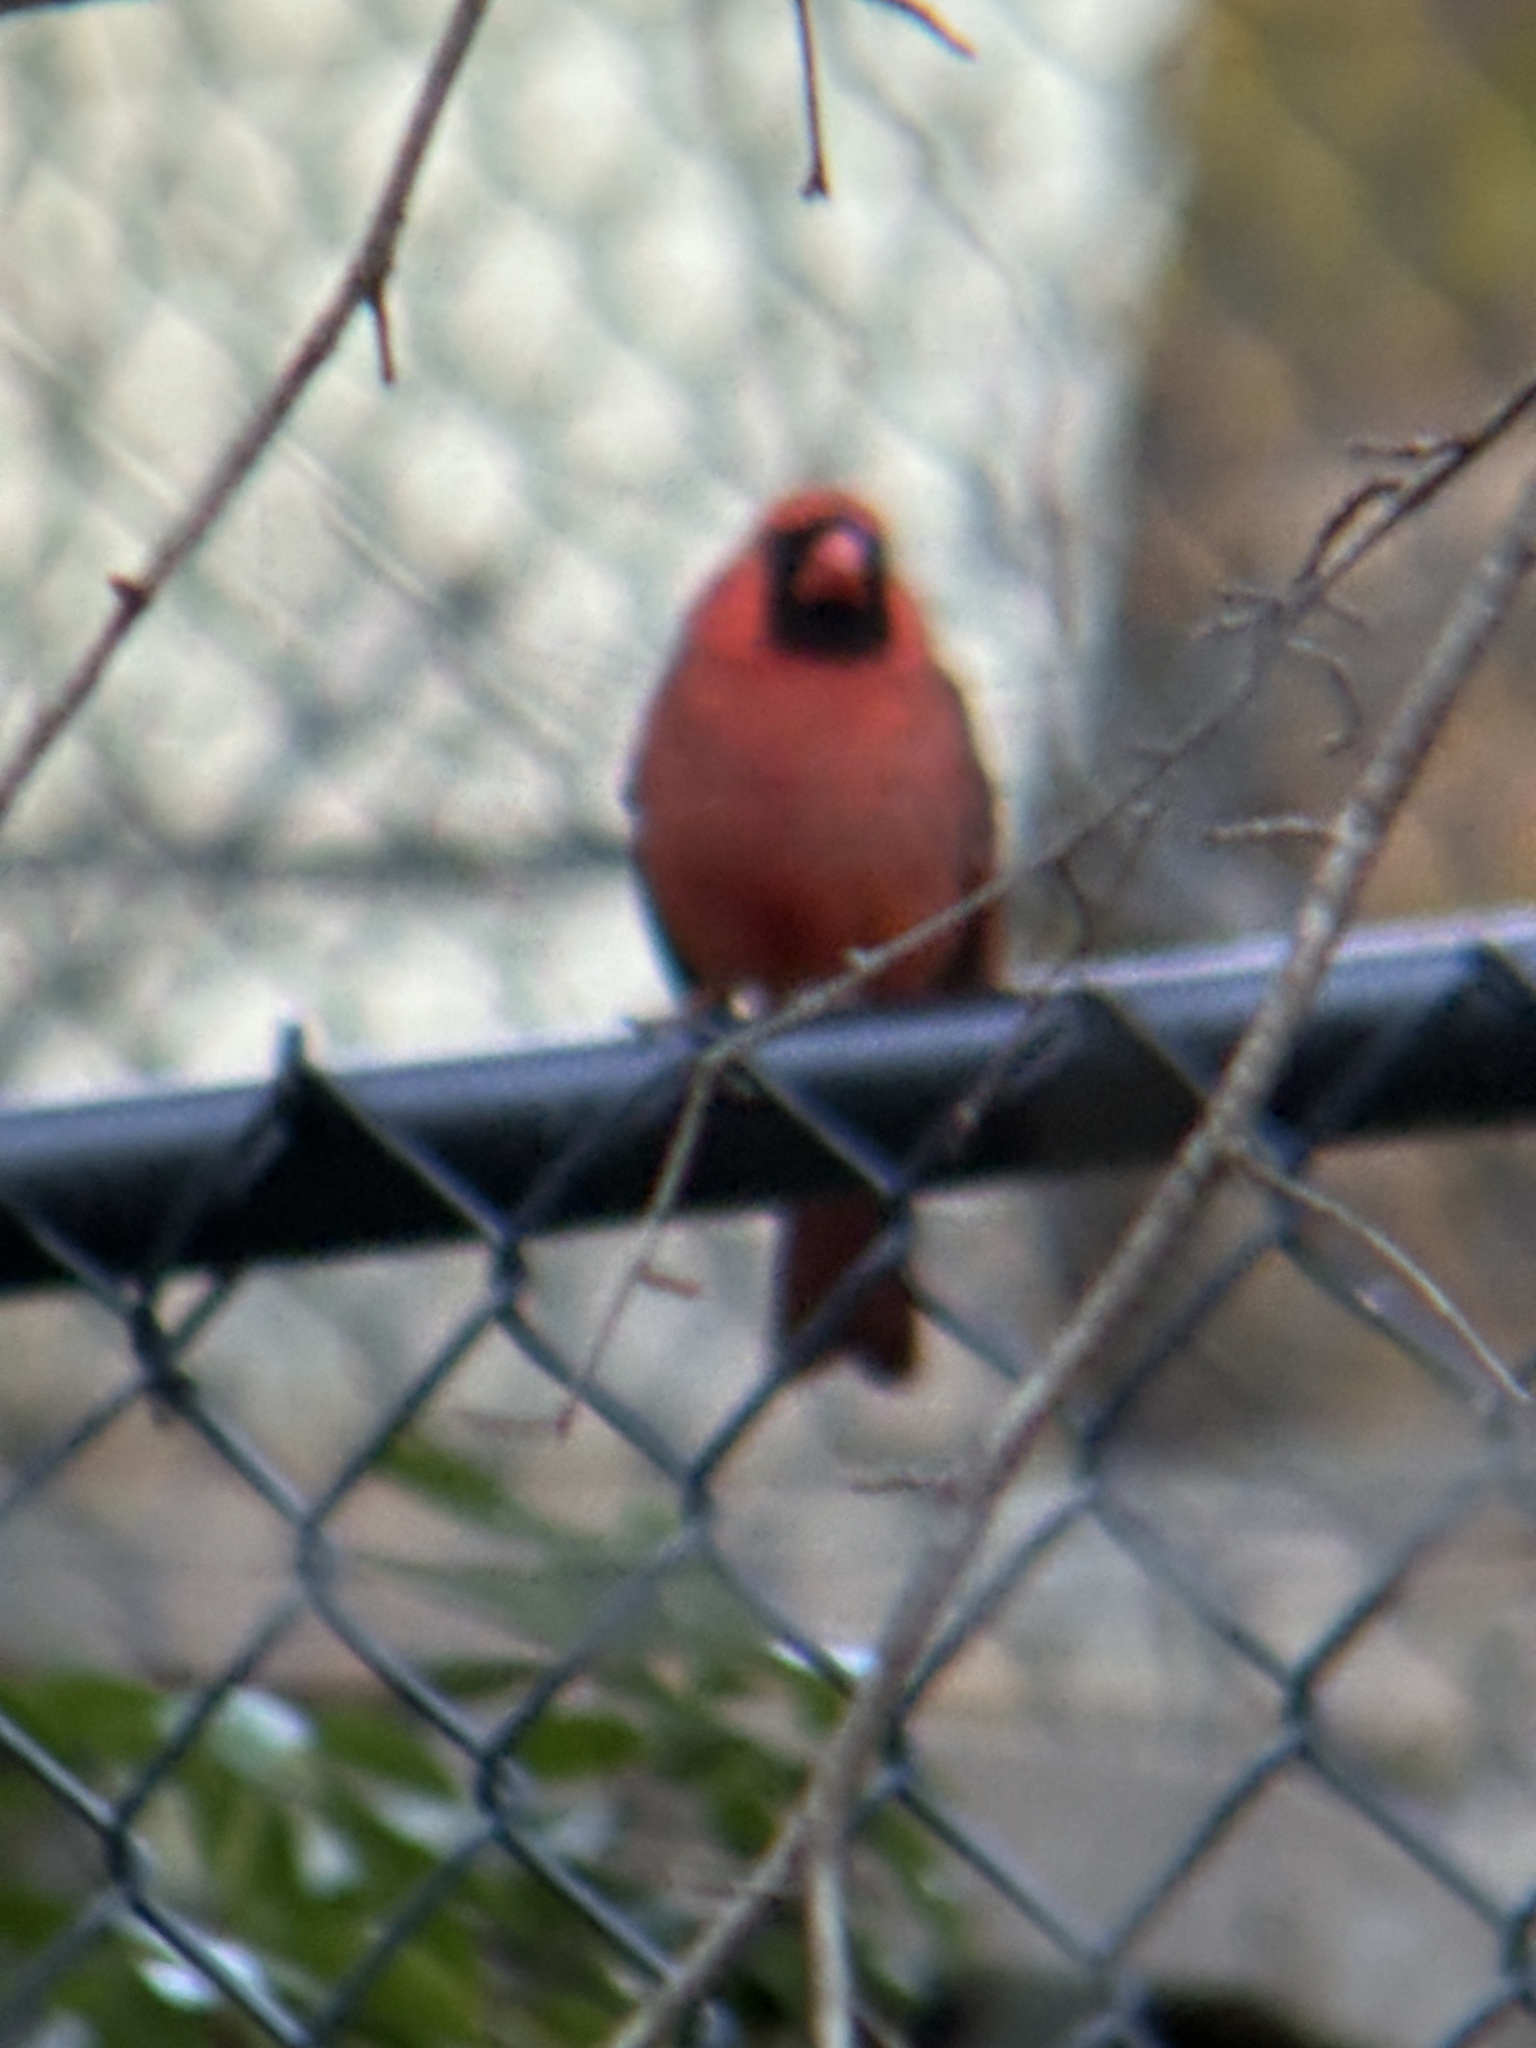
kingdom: Animalia
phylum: Chordata
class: Aves
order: Passeriformes
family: Cardinalidae
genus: Cardinalis
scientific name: Cardinalis cardinalis
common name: Northern cardinal
